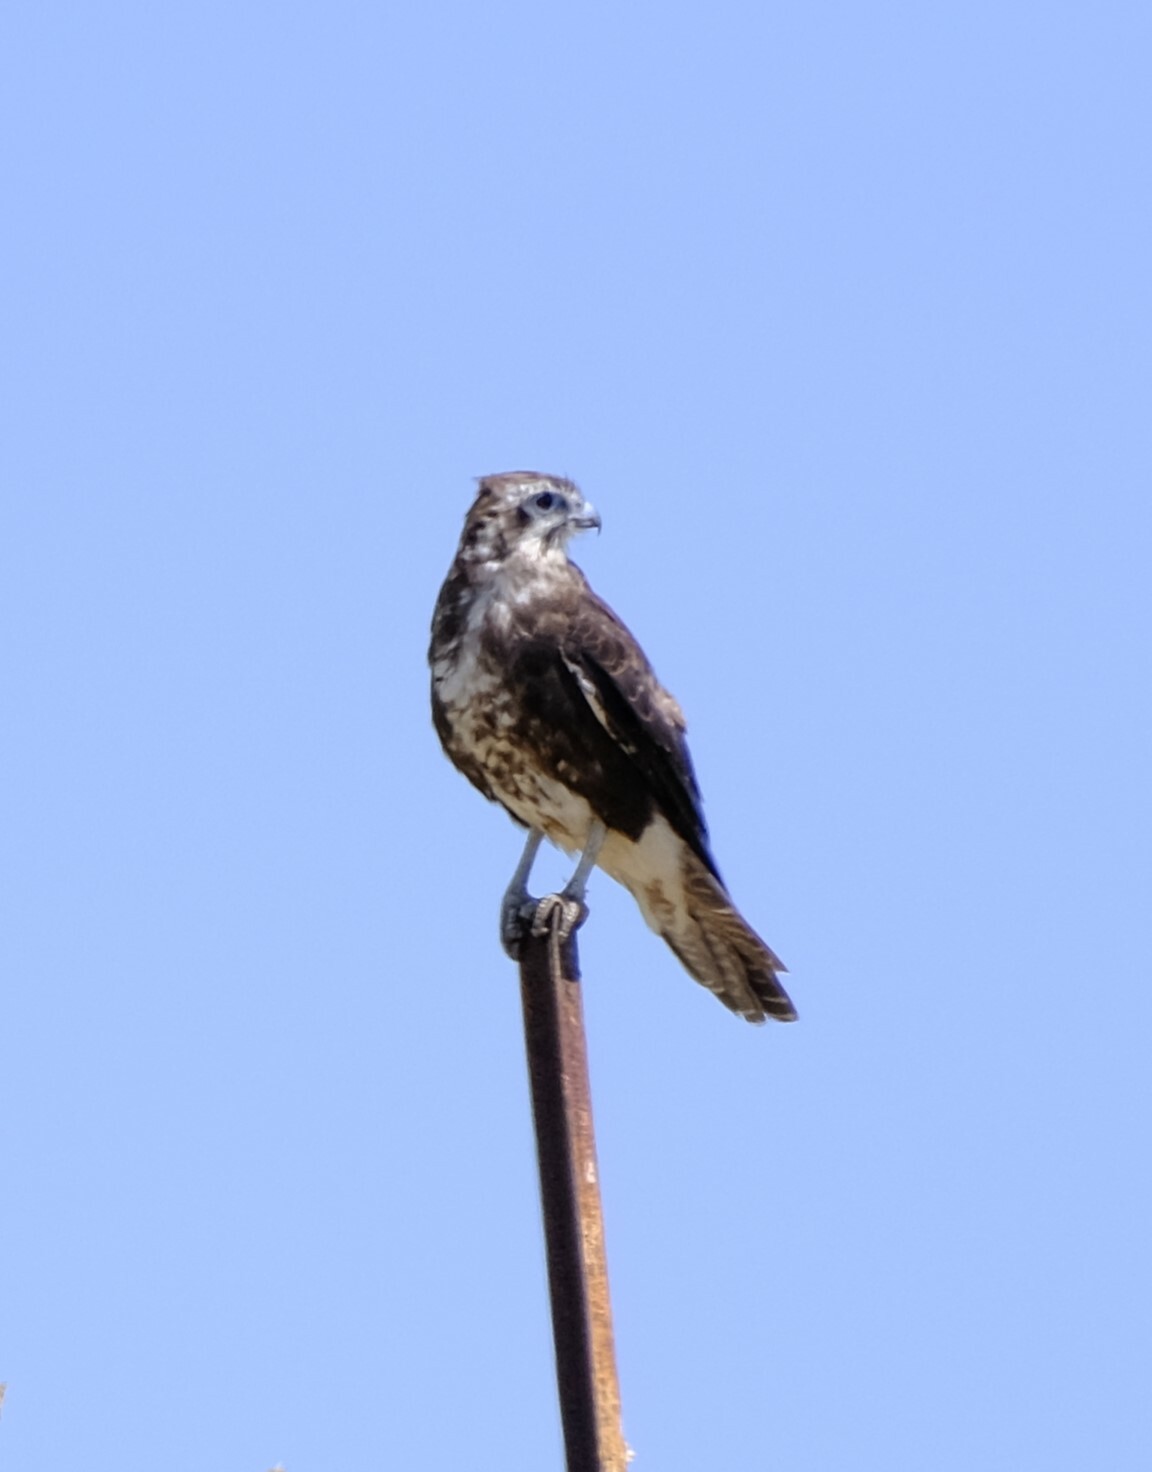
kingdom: Animalia
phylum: Chordata
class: Aves
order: Falconiformes
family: Falconidae
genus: Falco
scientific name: Falco berigora
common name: Brown falcon
